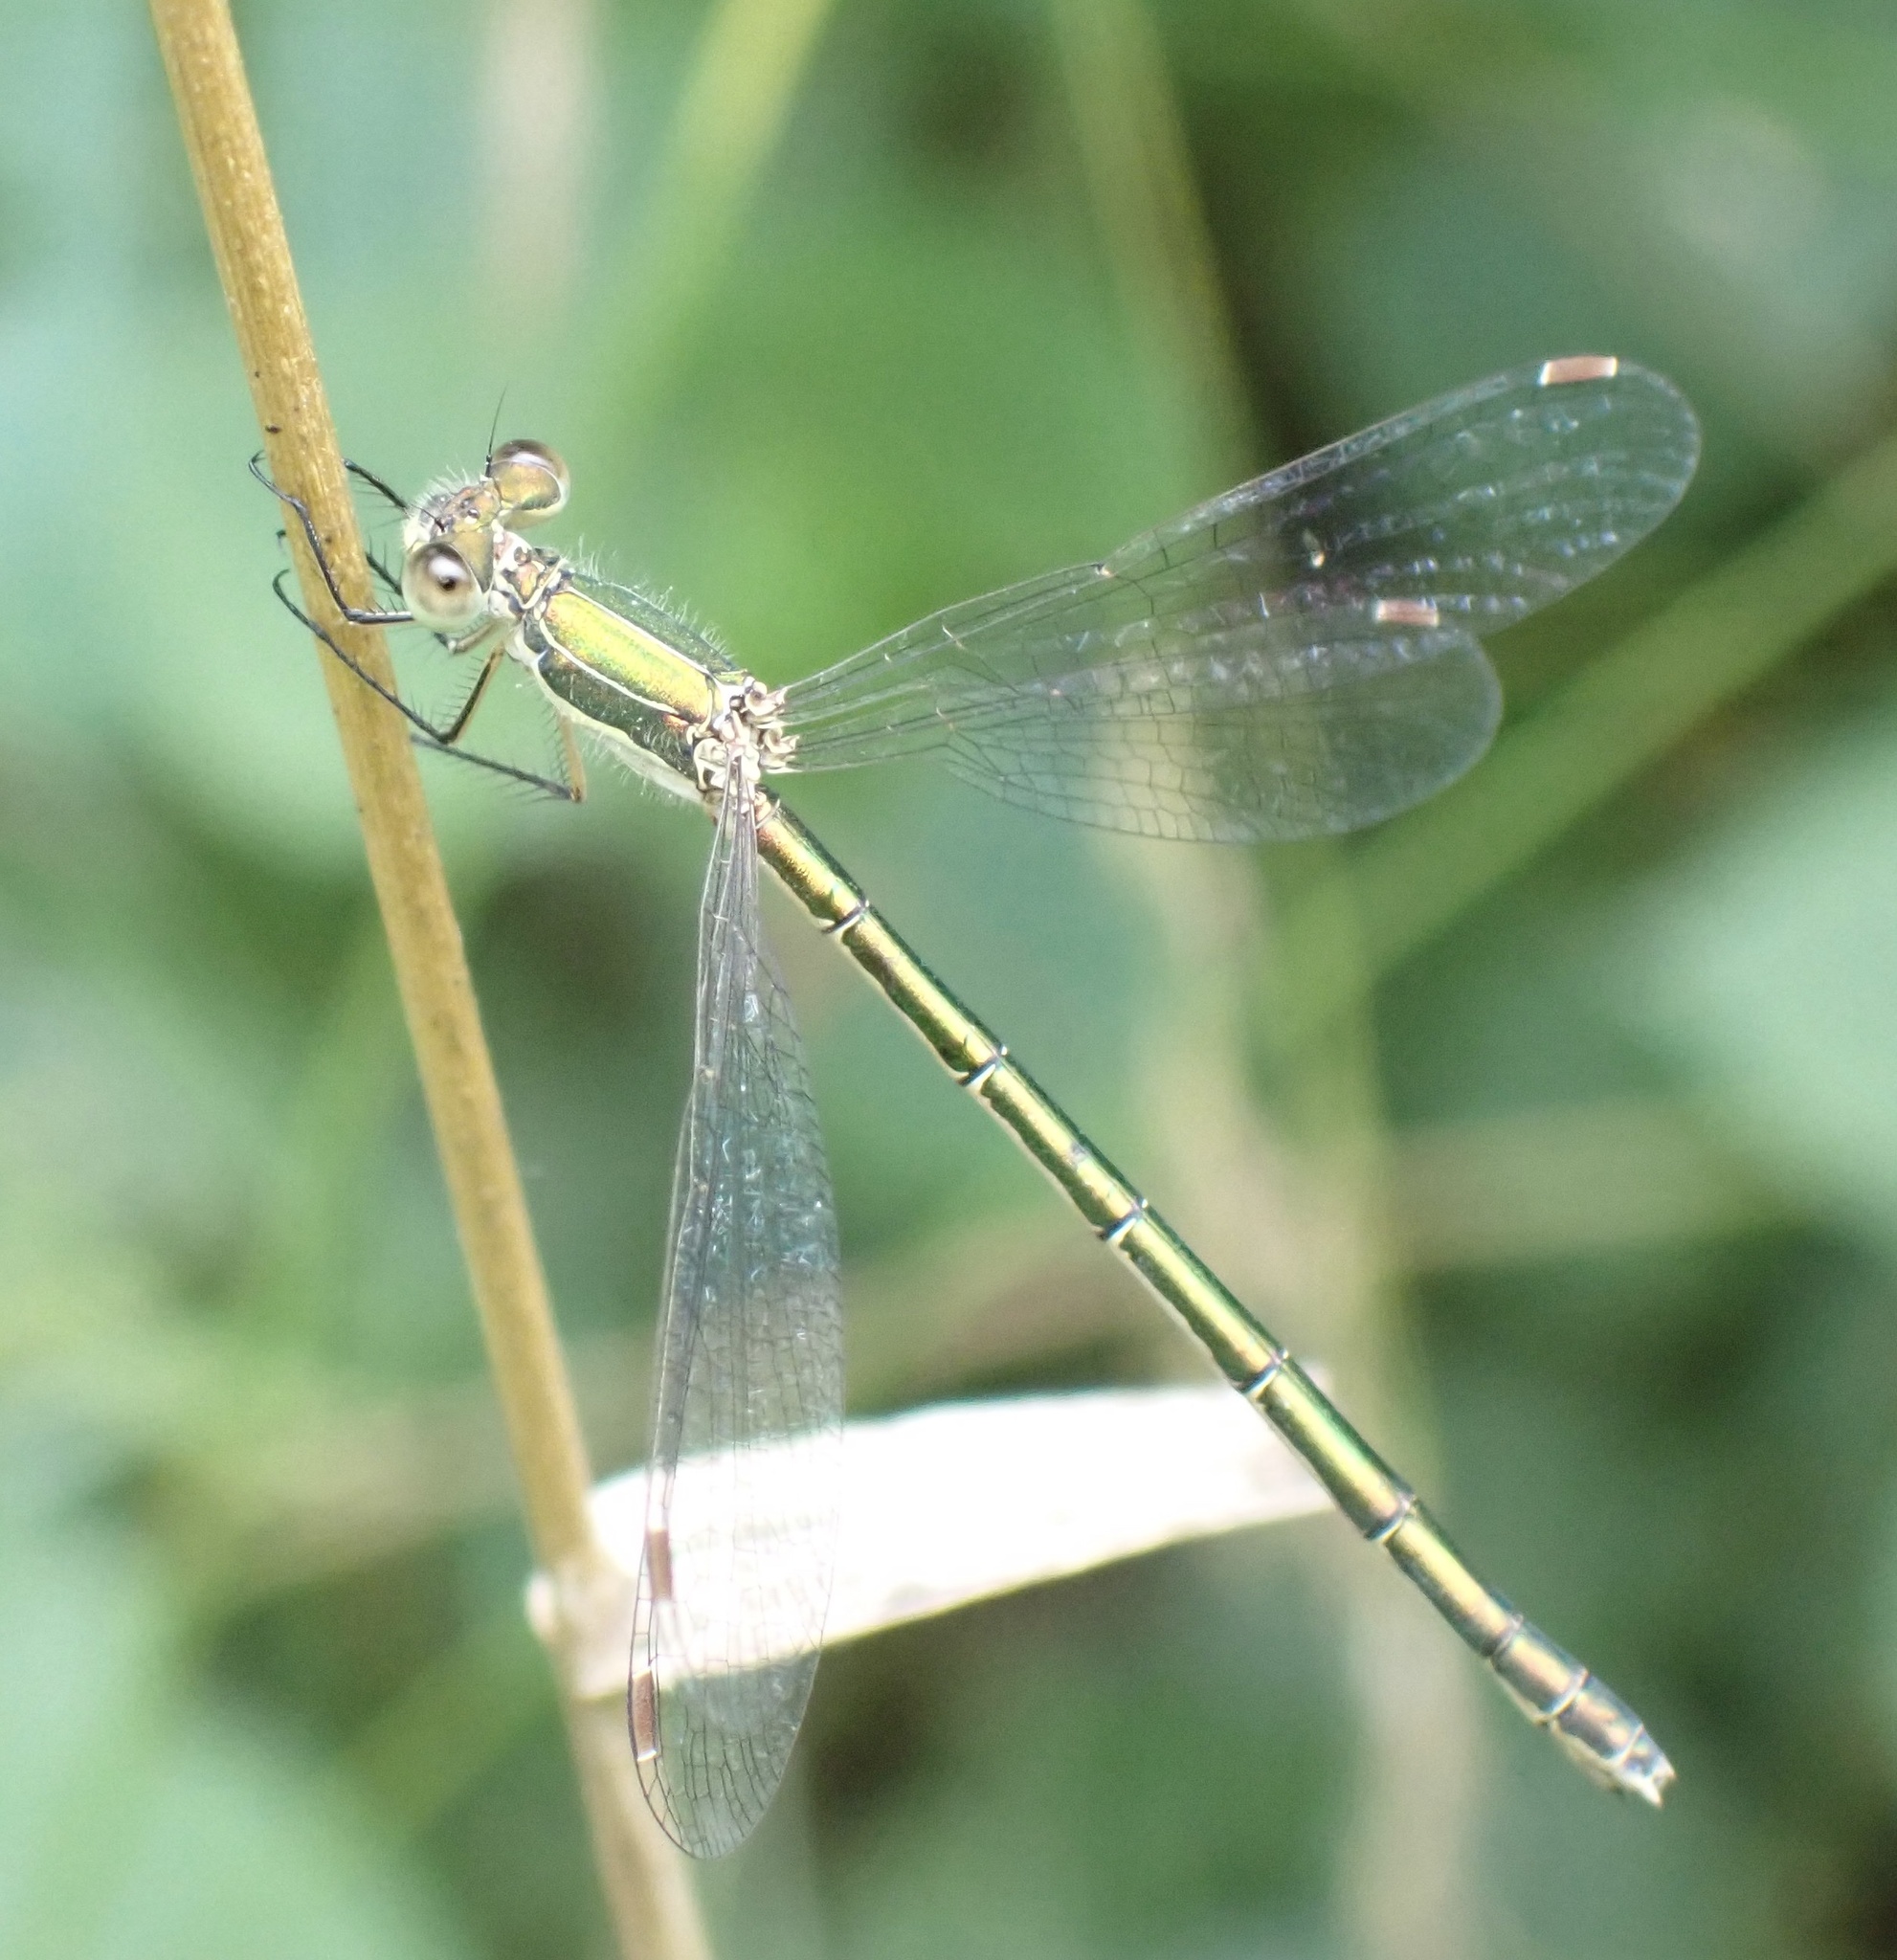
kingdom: Animalia
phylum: Arthropoda
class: Insecta
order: Odonata
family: Lestidae
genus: Lestes
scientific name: Lestes virens
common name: Small emerald spreadwing
